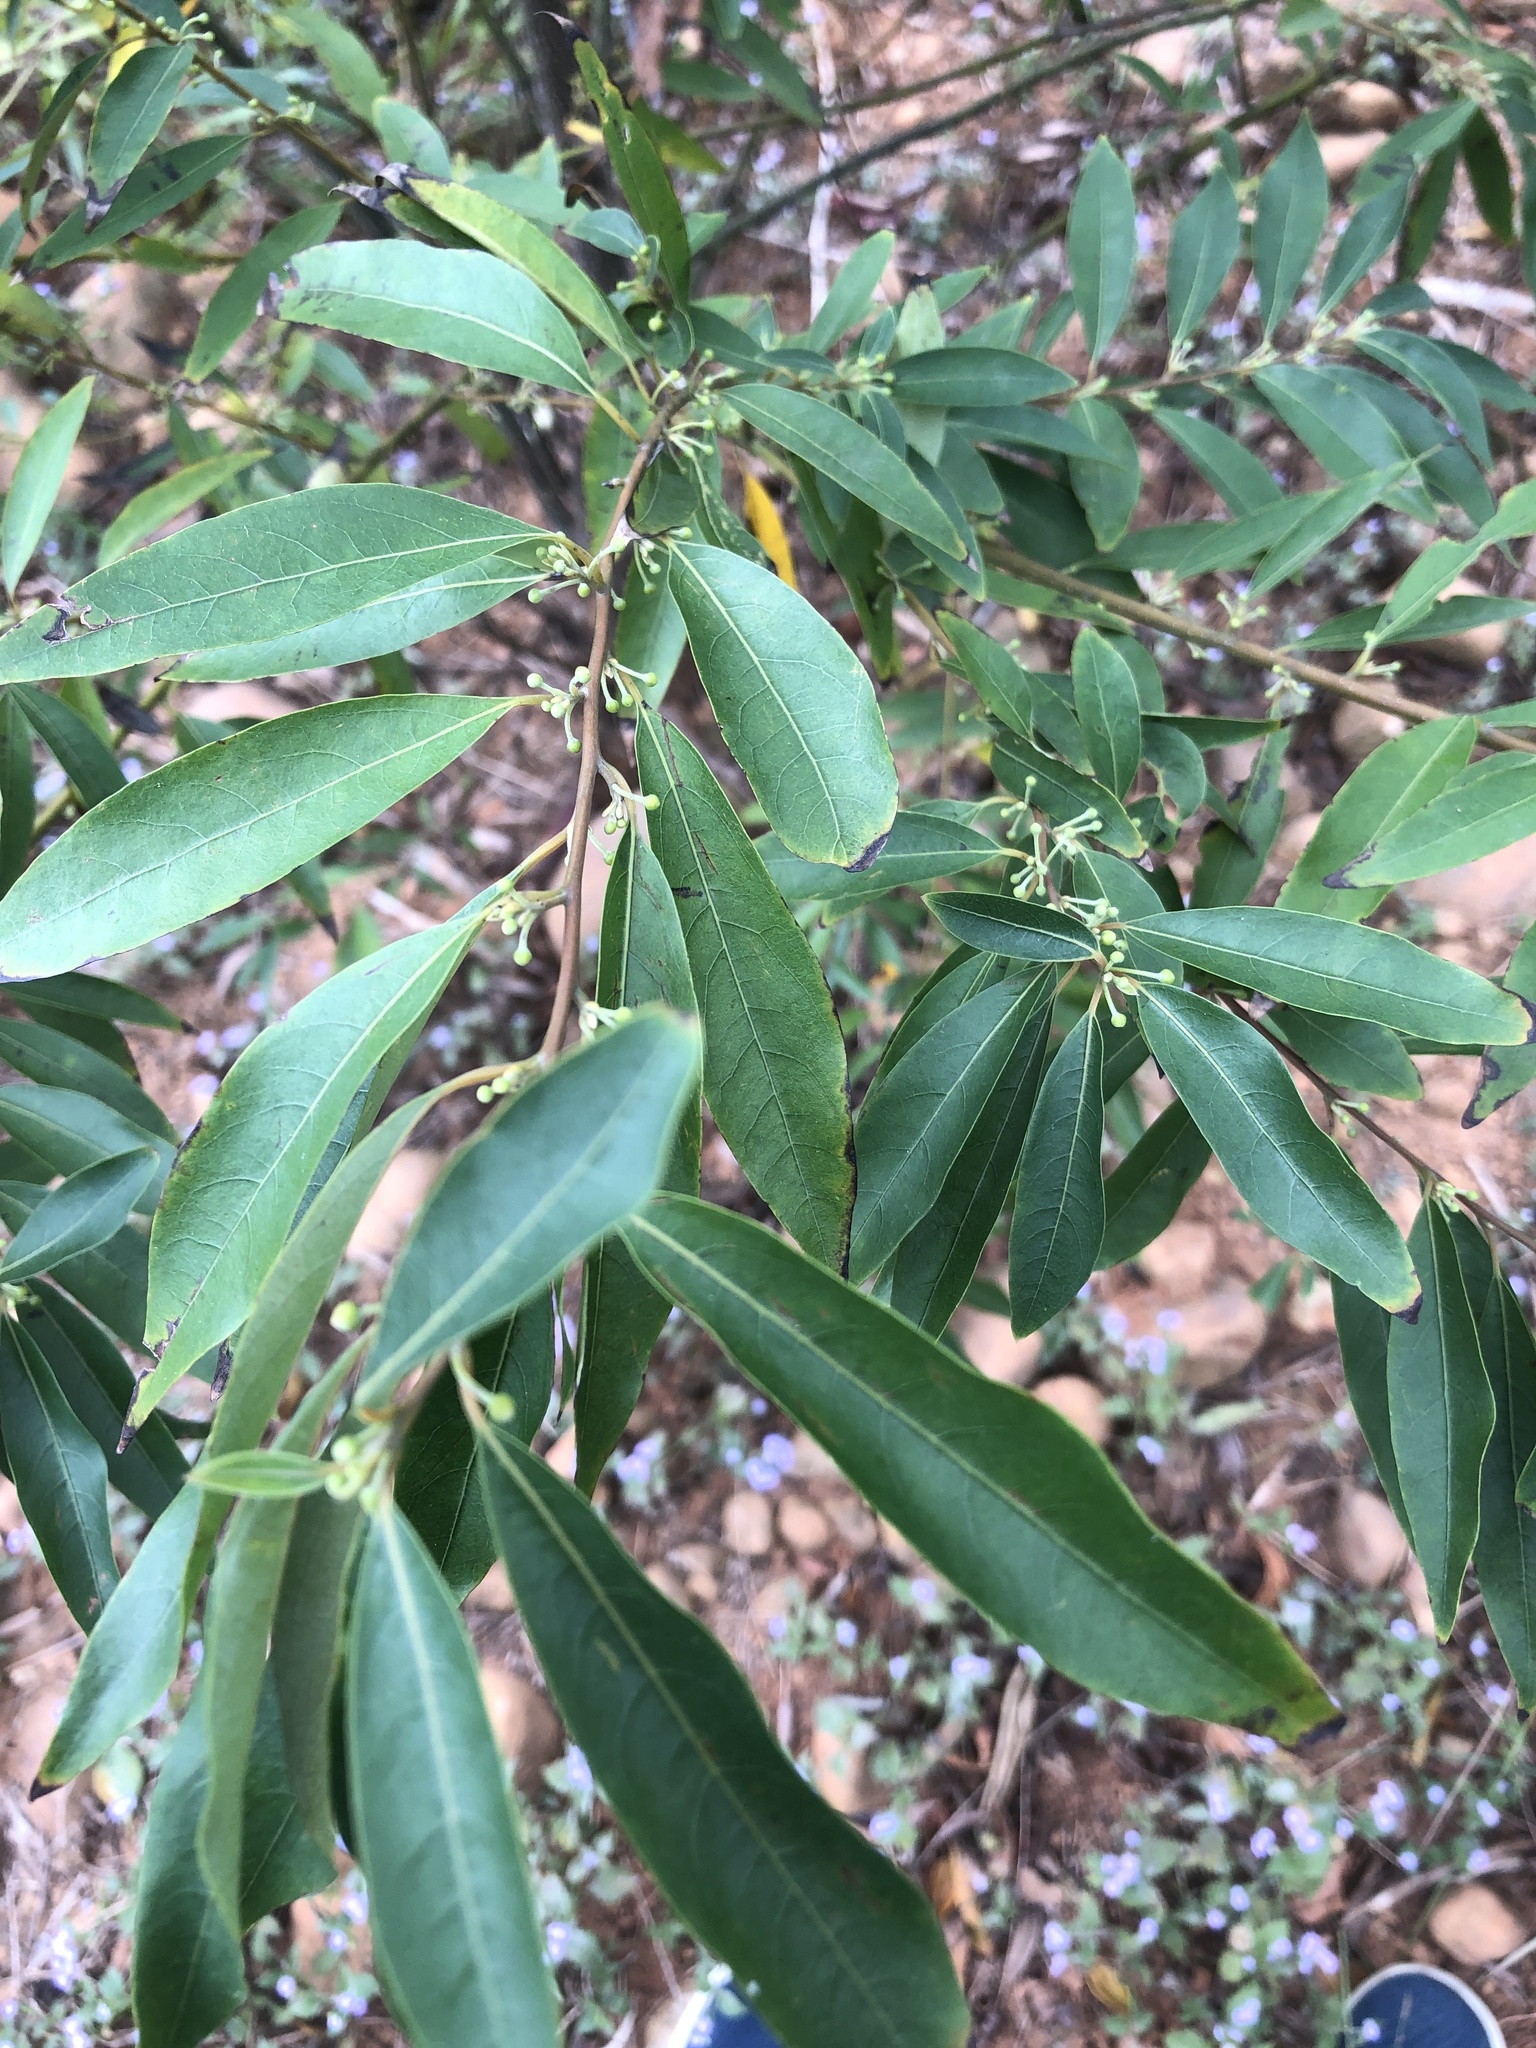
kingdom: Plantae
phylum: Tracheophyta
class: Magnoliopsida
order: Laurales
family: Lauraceae
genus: Litsea
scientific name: Litsea cubeba
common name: Mountain-pepper
